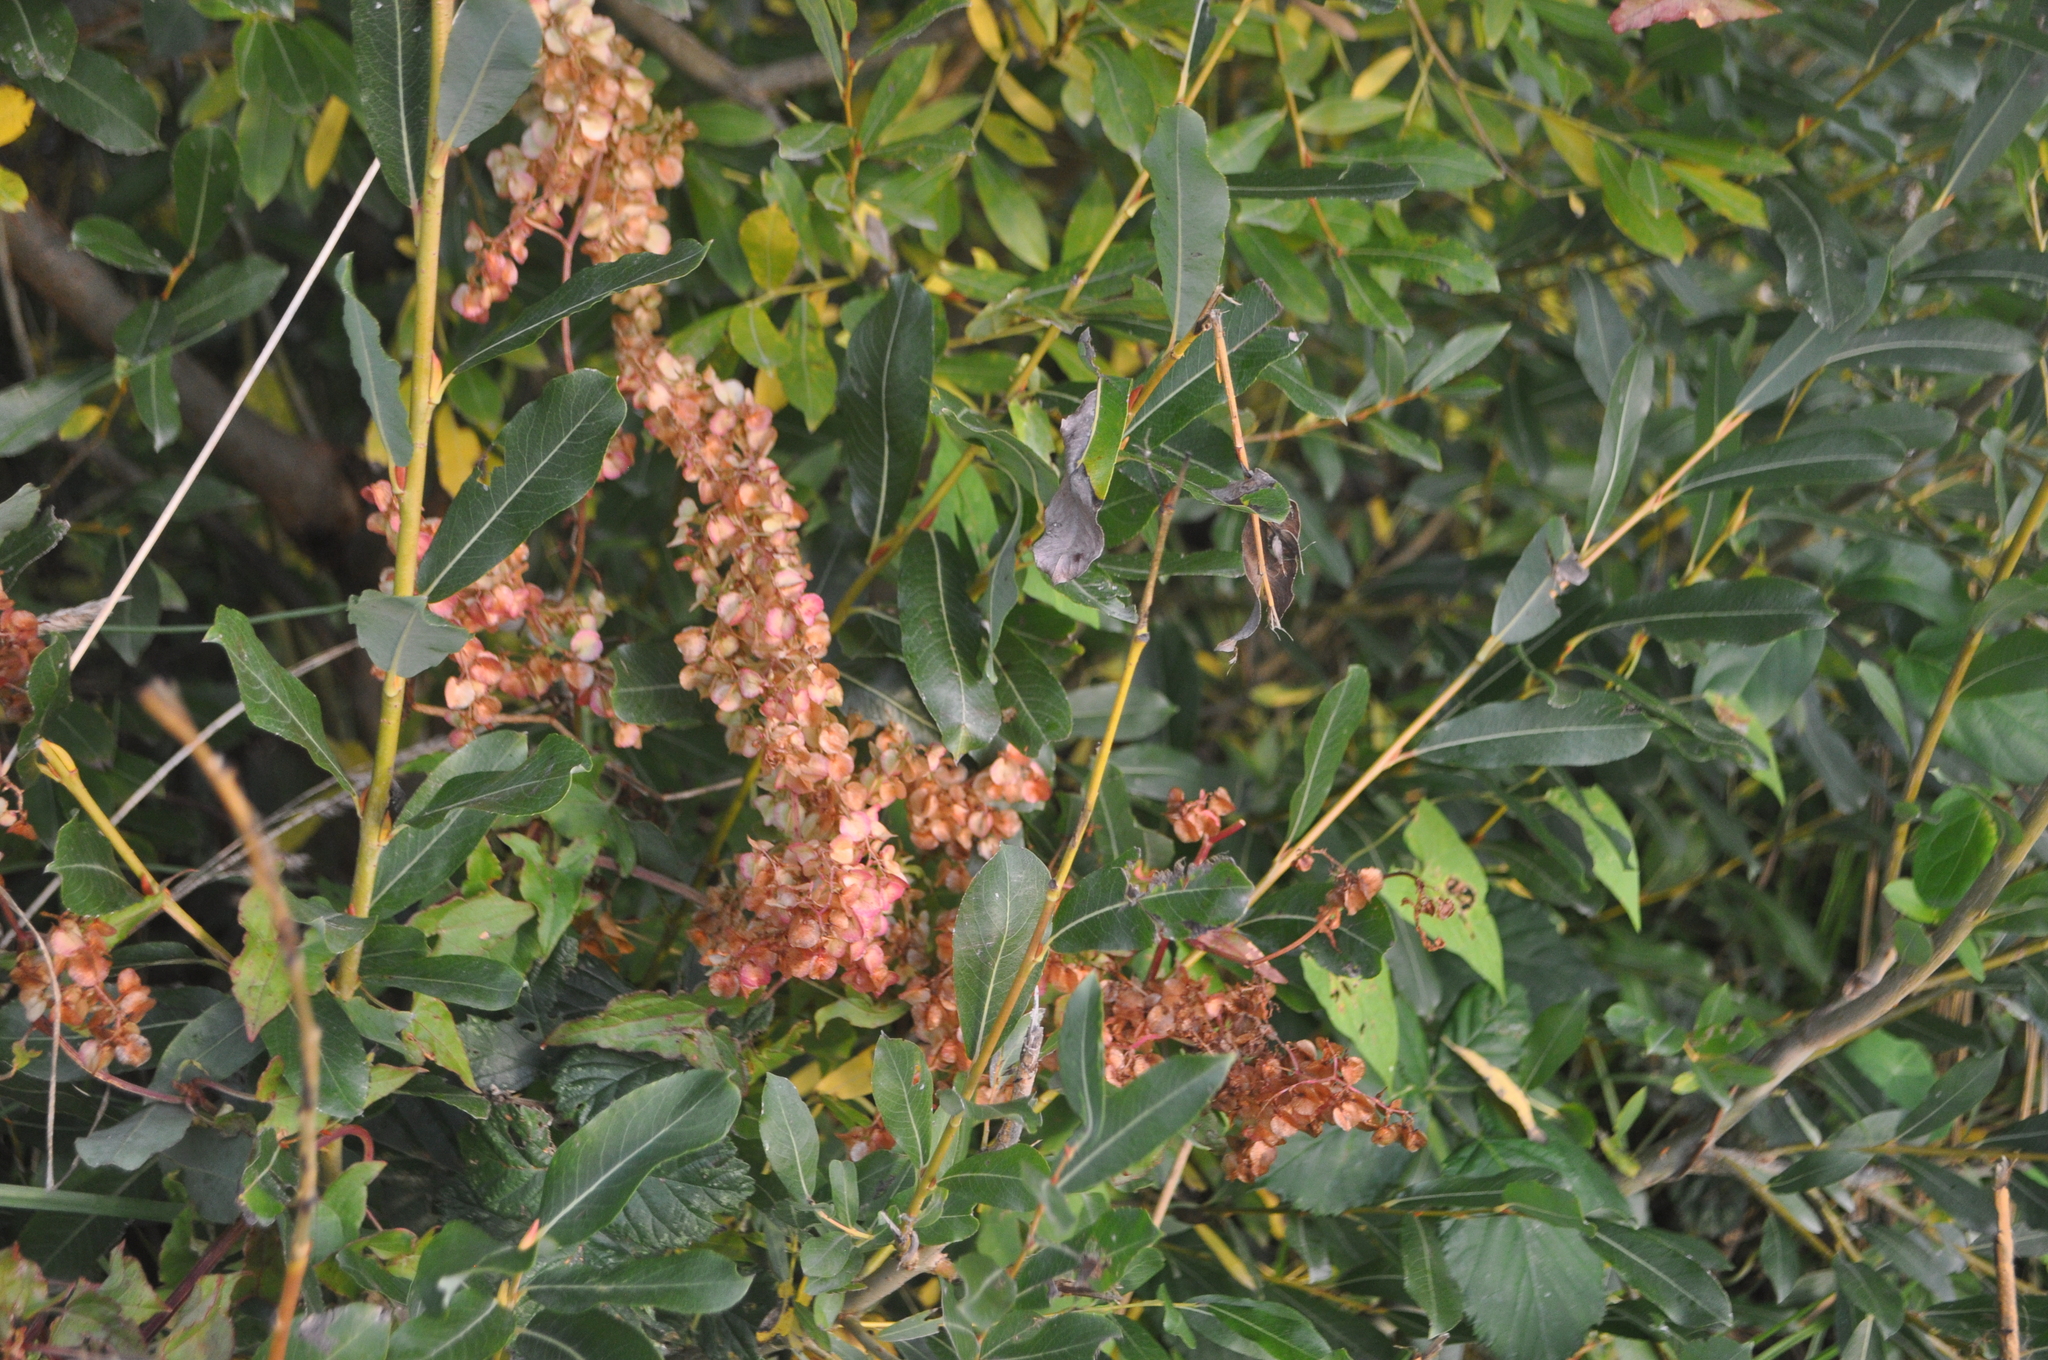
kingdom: Plantae
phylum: Tracheophyta
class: Magnoliopsida
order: Caryophyllales
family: Polygonaceae
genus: Rumex
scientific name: Rumex sagittatus
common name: Climbing dock
